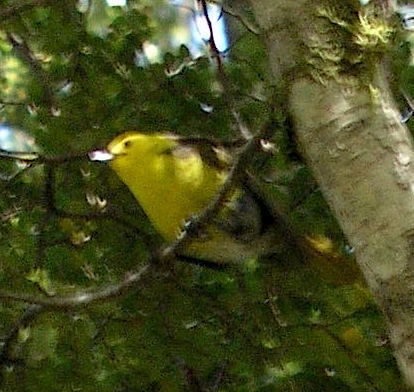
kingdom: Animalia
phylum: Chordata
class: Aves
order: Passeriformes
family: Acanthizidae
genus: Mohoua
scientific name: Mohoua ochrocephala
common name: Yellowhead
